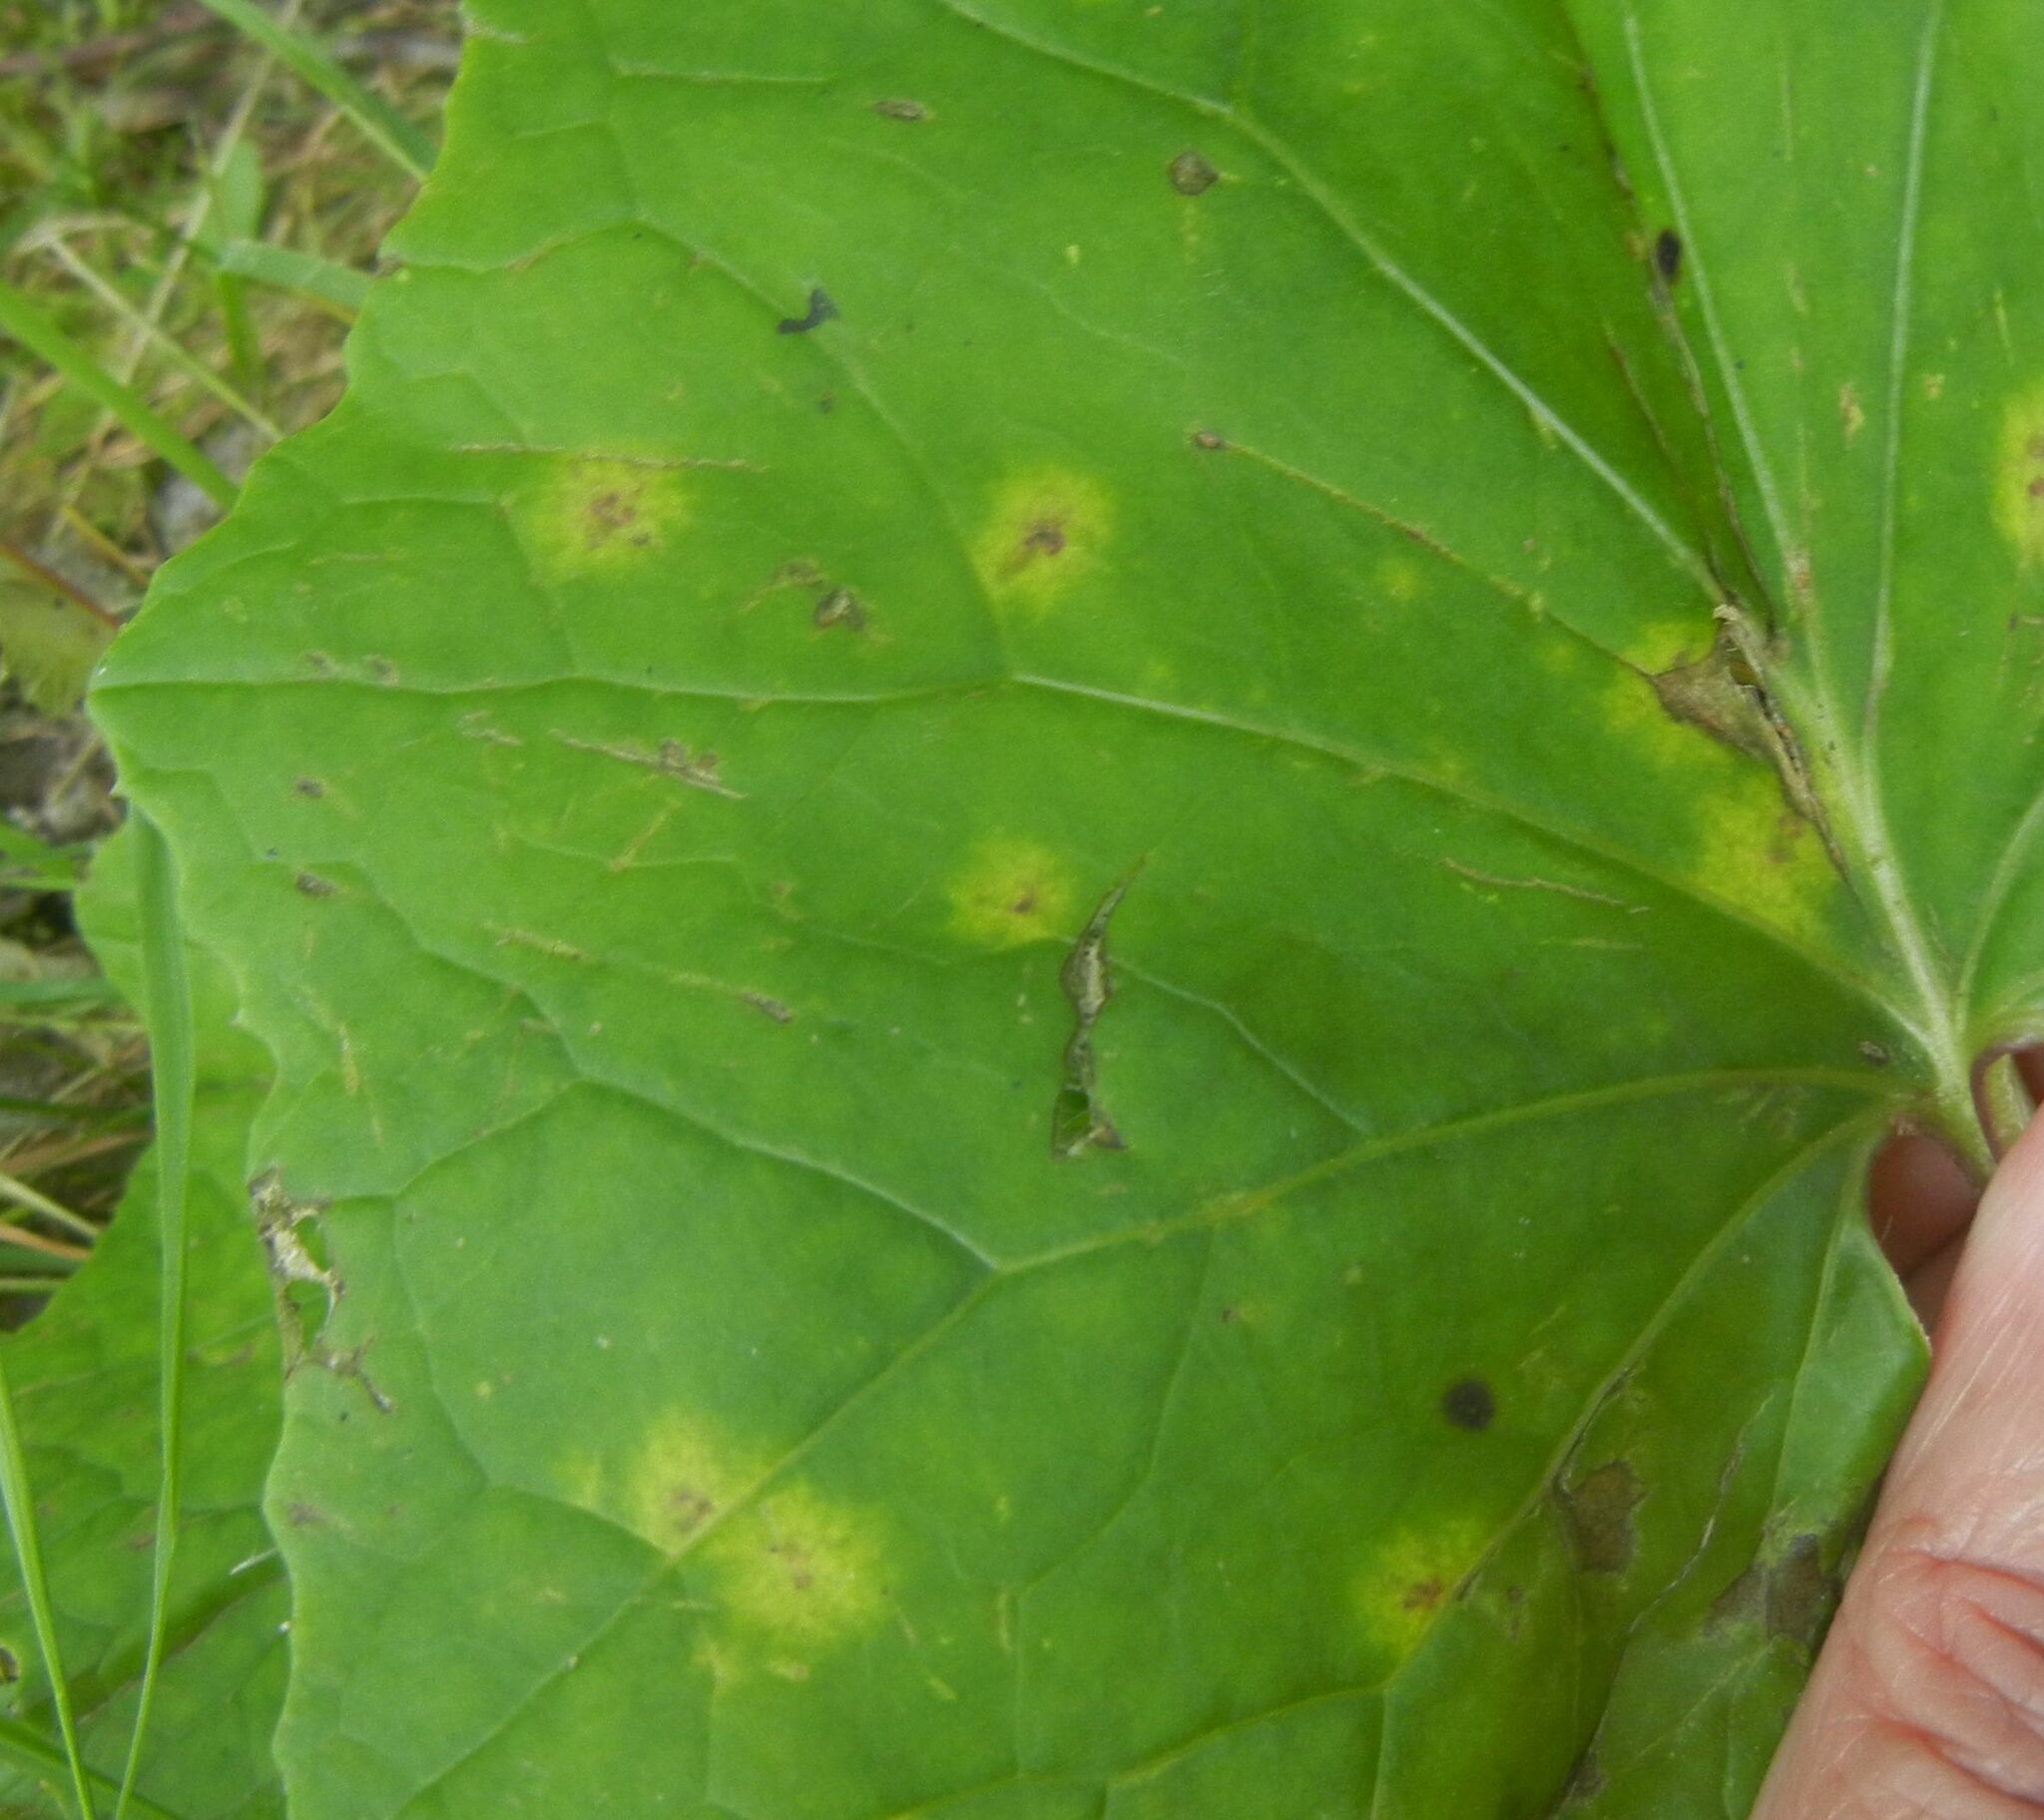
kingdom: Fungi
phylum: Basidiomycota
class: Pucciniomycetes
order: Pucciniales
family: Coleosporiaceae
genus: Coleosporium
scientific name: Coleosporium tussilaginis
